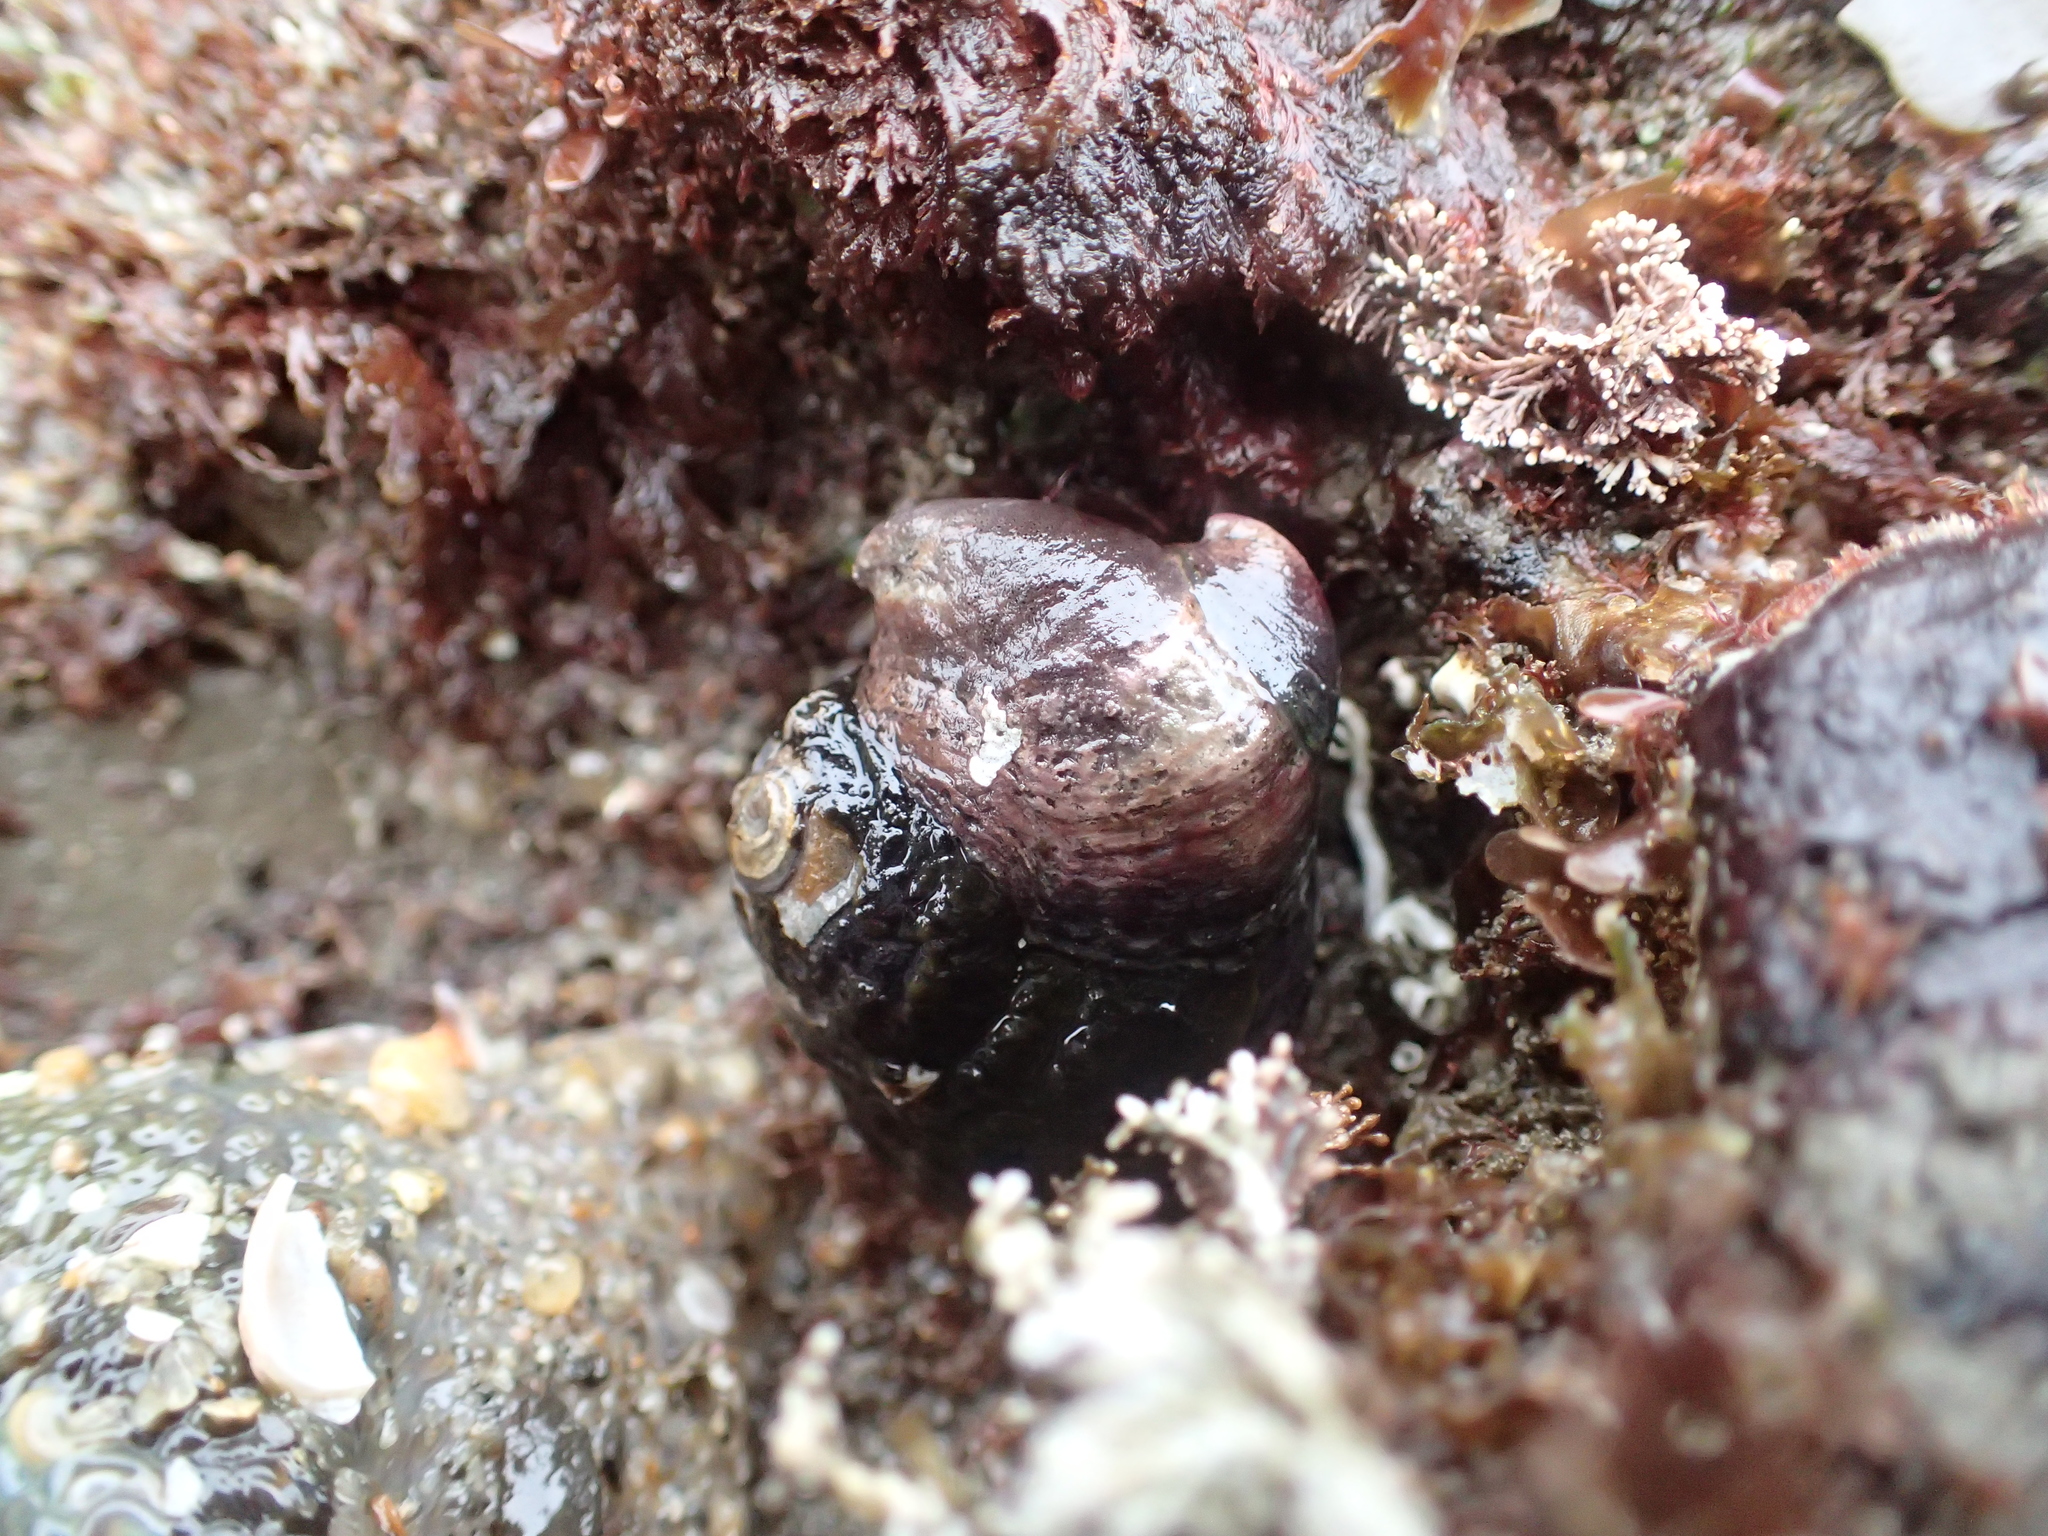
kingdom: Animalia
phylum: Mollusca
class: Gastropoda
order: Littorinimorpha
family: Calyptraeidae
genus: Crepidula
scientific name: Crepidula adunca
